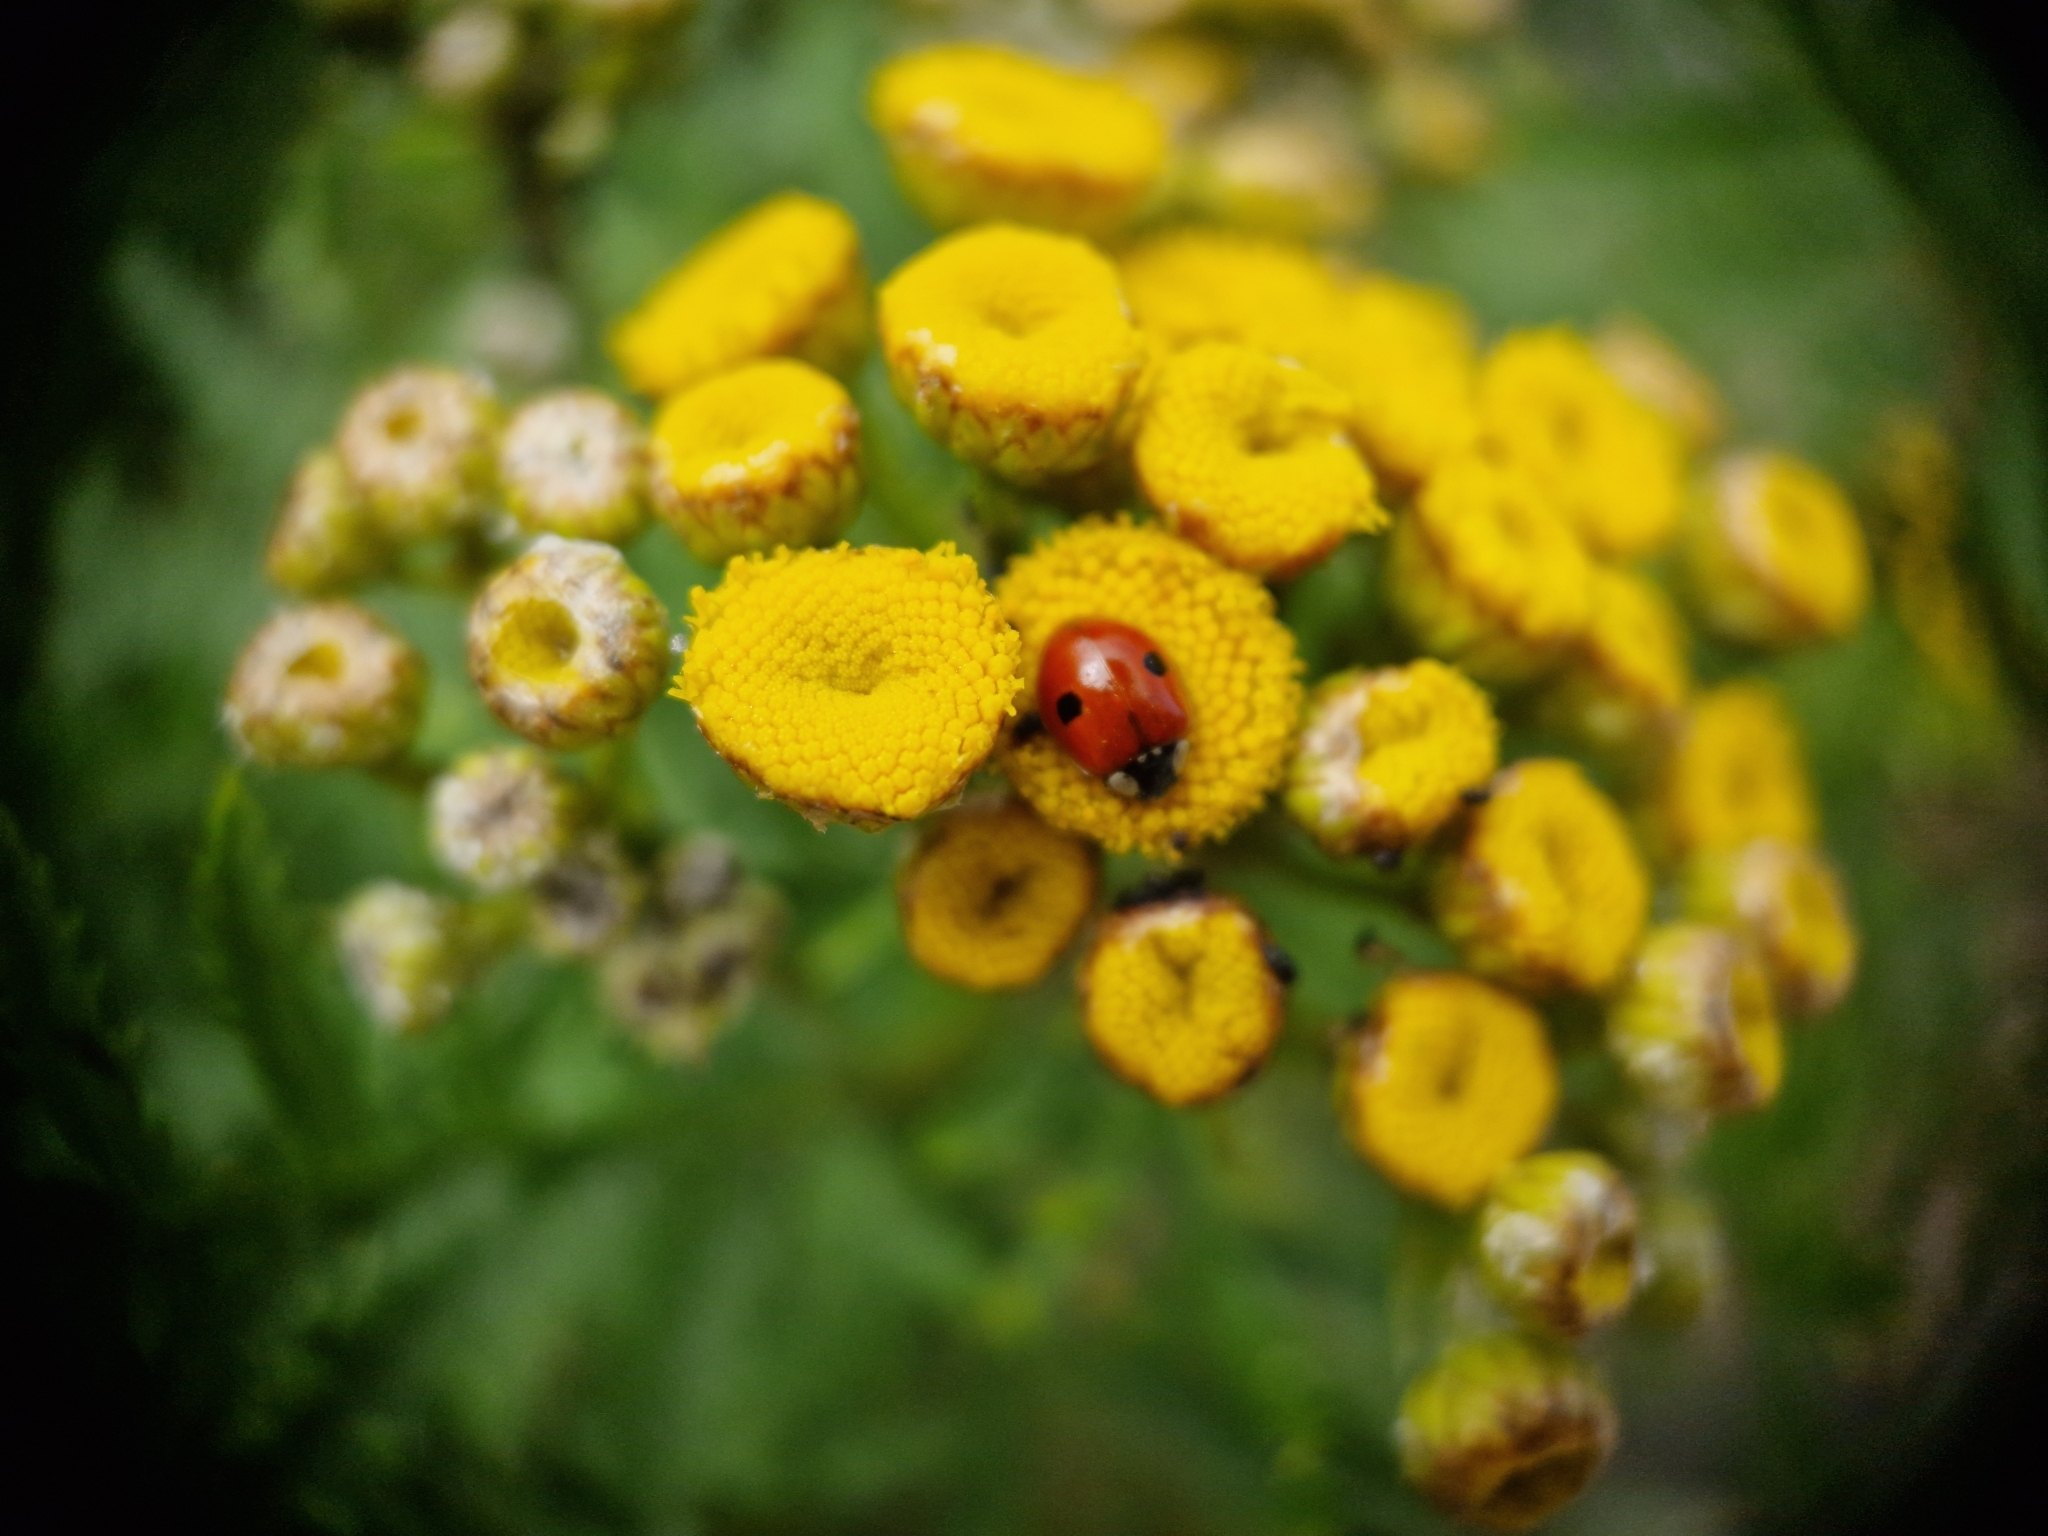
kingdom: Animalia
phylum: Arthropoda
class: Insecta
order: Coleoptera
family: Coccinellidae
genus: Adalia
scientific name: Adalia bipunctata
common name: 2-spot ladybird
